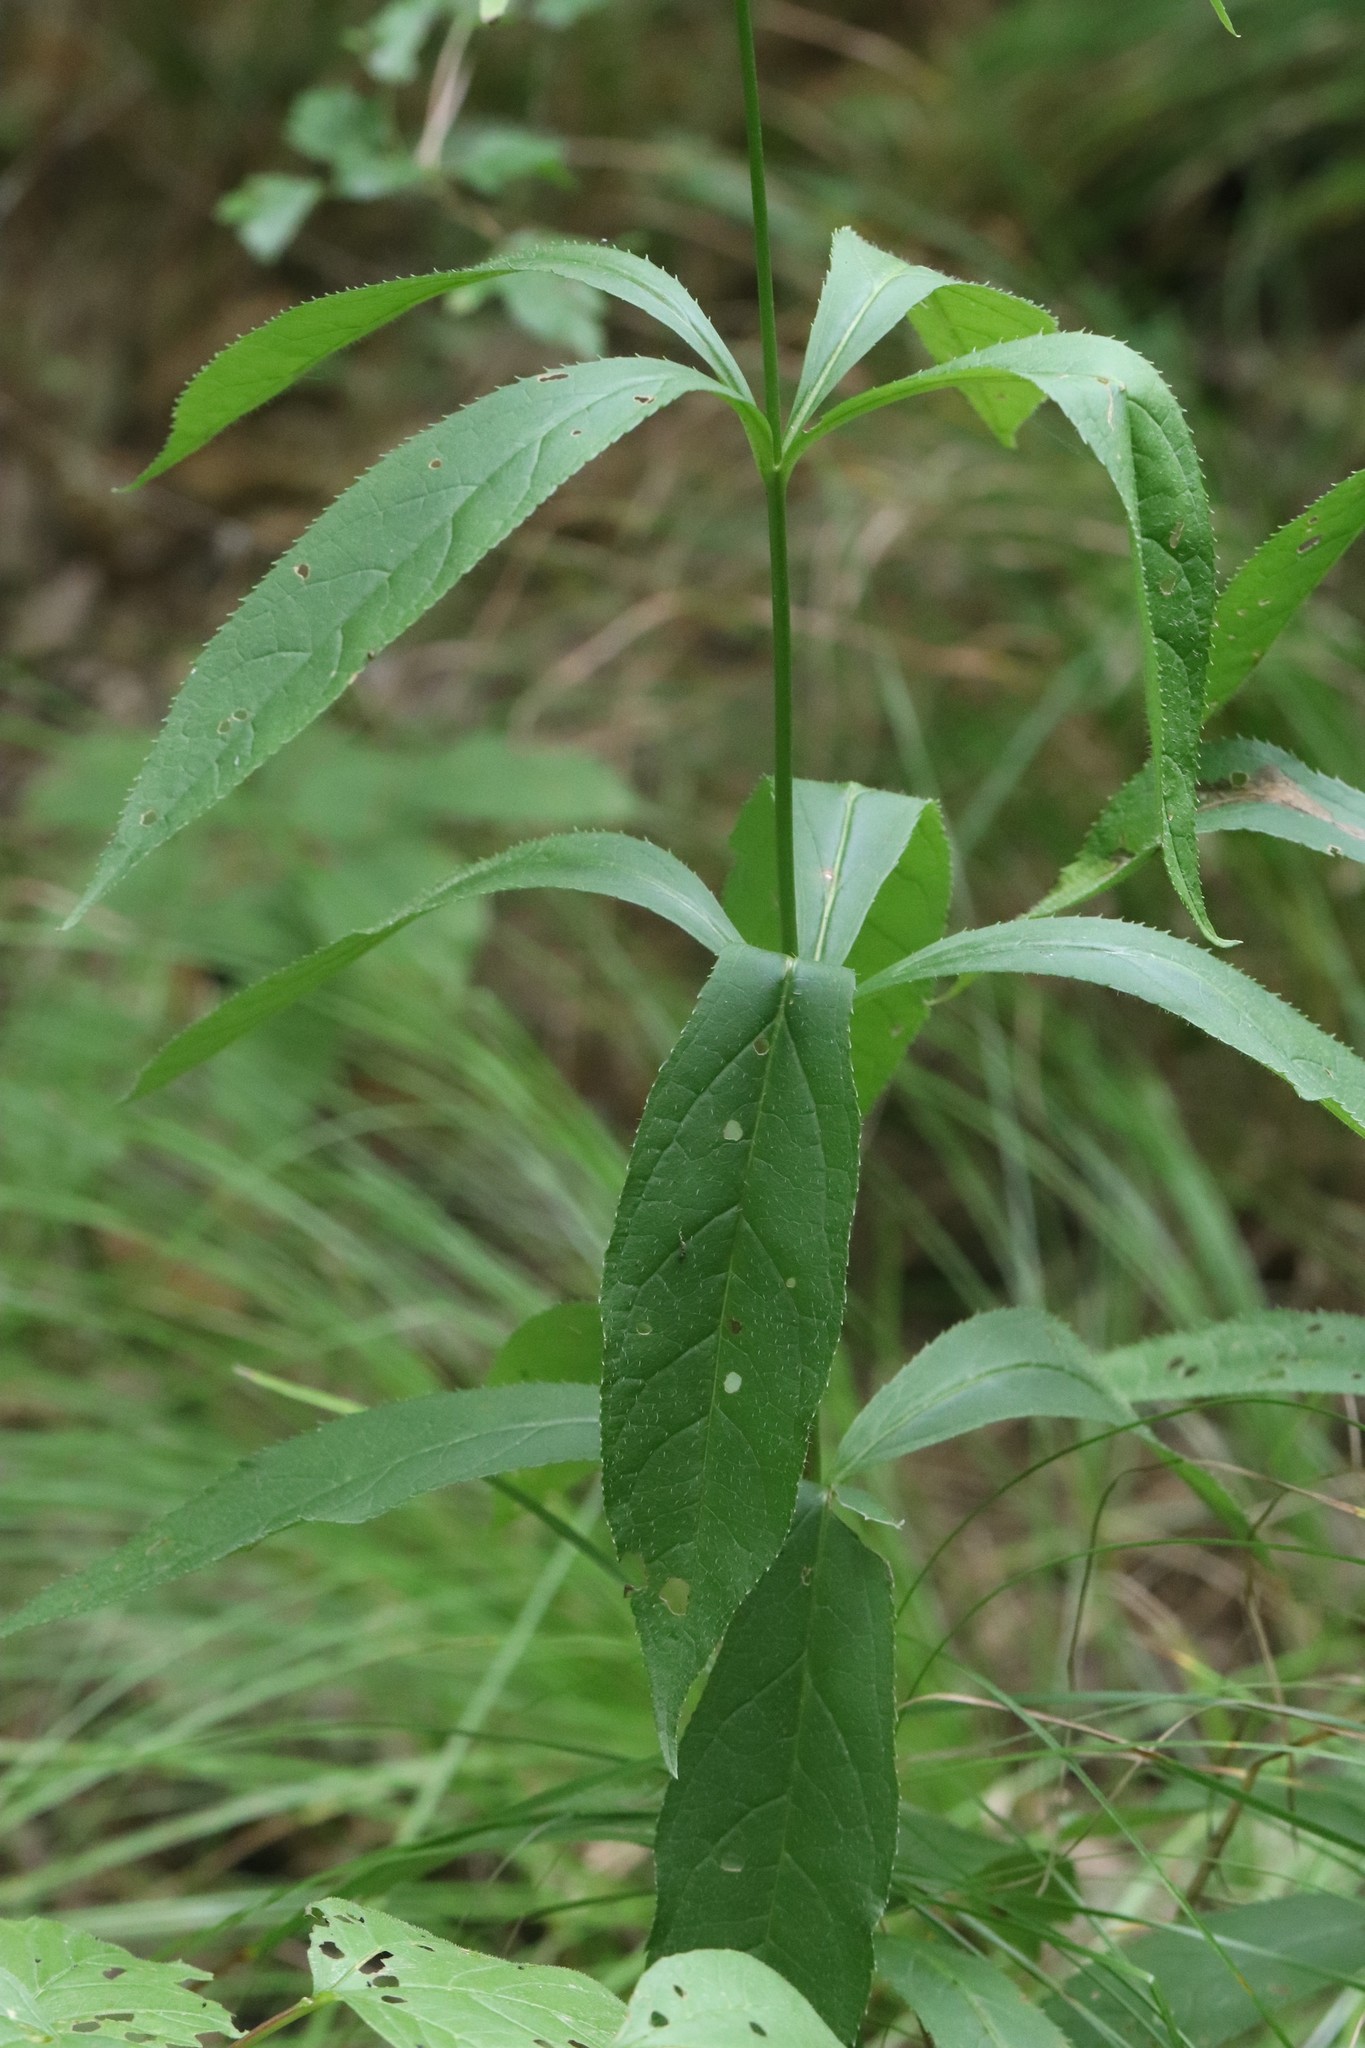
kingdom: Plantae
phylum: Tracheophyta
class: Magnoliopsida
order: Lamiales
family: Plantaginaceae
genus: Veronicastrum
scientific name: Veronicastrum sibiricum
